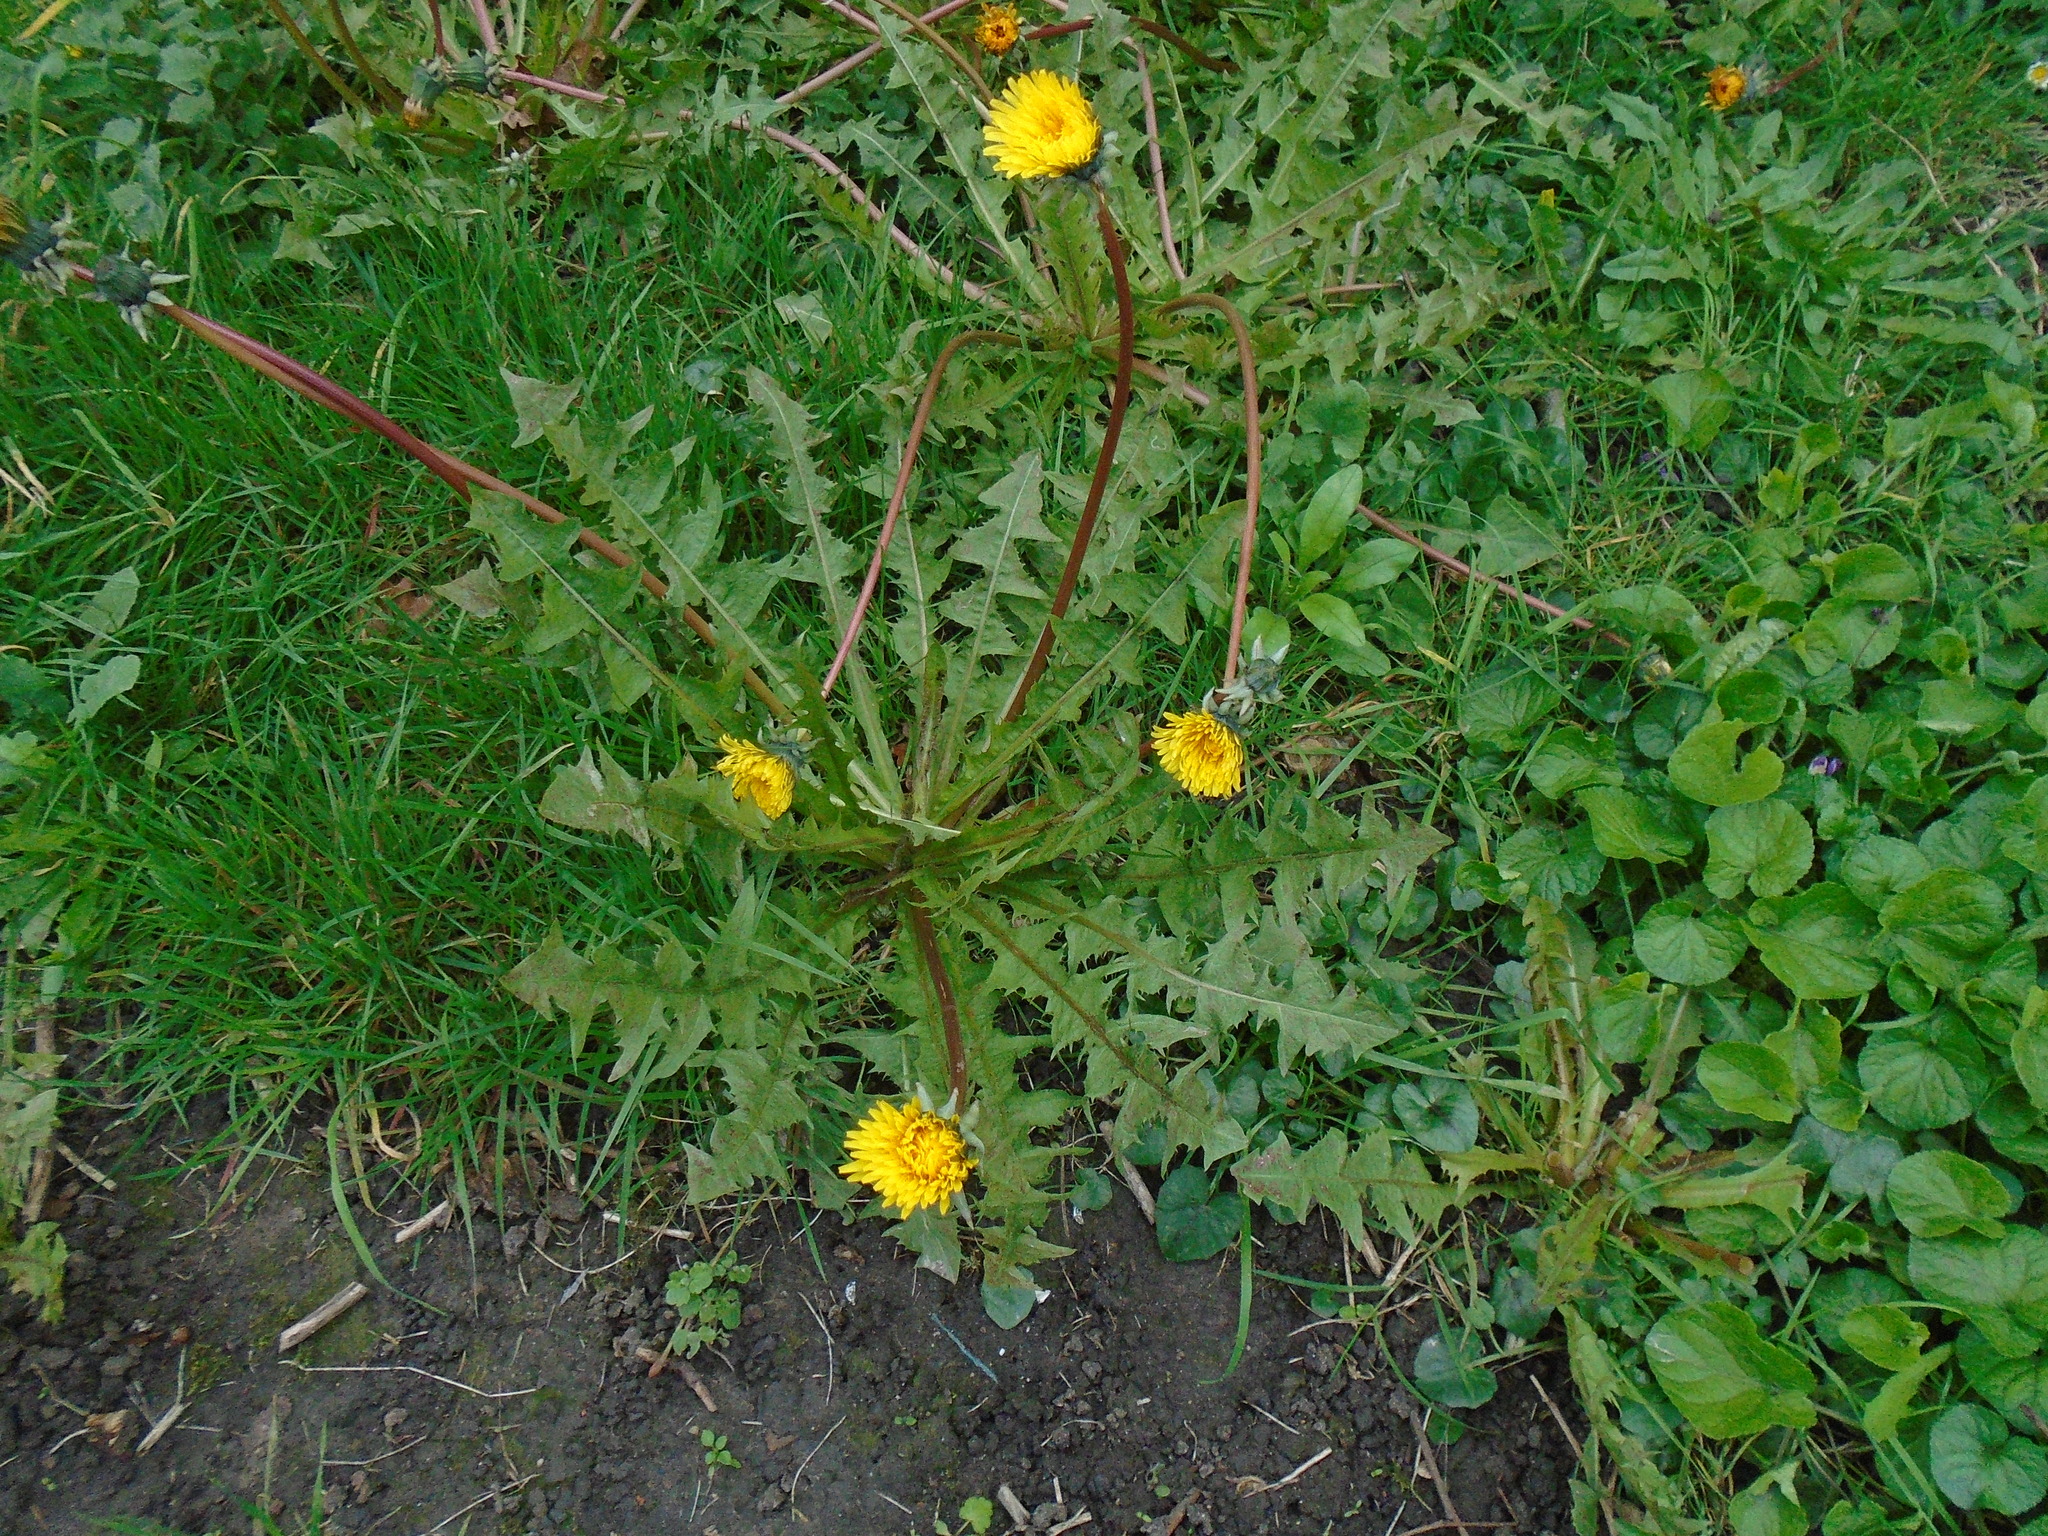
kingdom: Plantae
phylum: Tracheophyta
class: Magnoliopsida
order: Asterales
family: Asteraceae
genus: Taraxacum
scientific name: Taraxacum officinale
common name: Common dandelion
